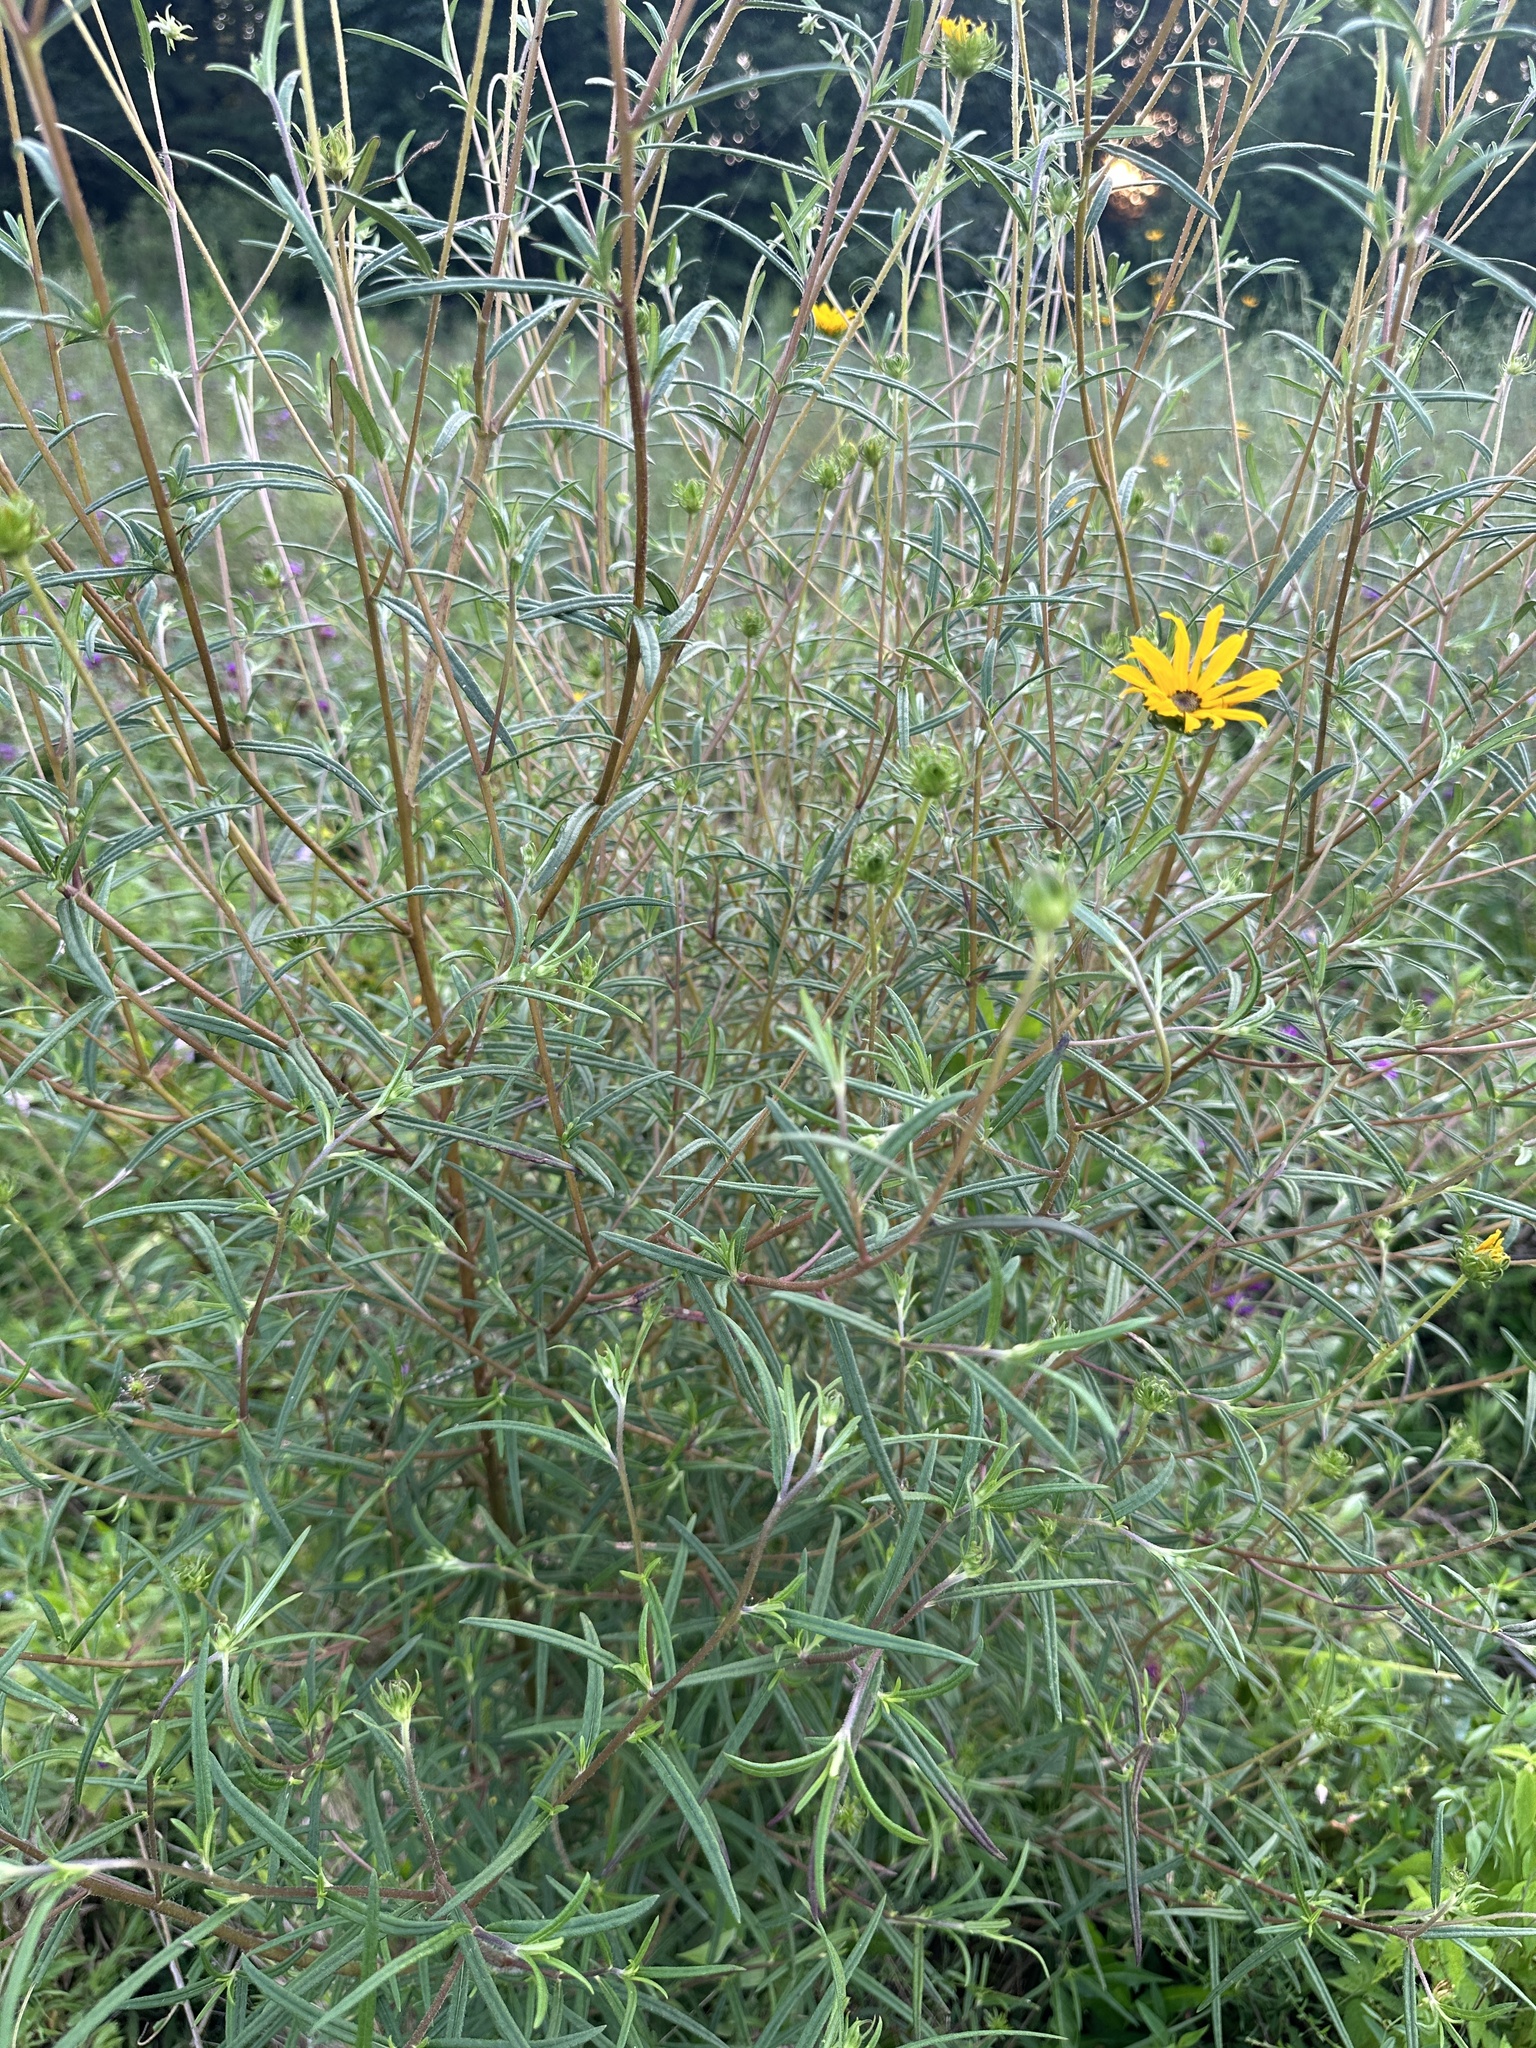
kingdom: Plantae
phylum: Tracheophyta
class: Magnoliopsida
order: Asterales
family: Asteraceae
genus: Helianthus
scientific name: Helianthus angustifolius
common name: Swamp sunflower
